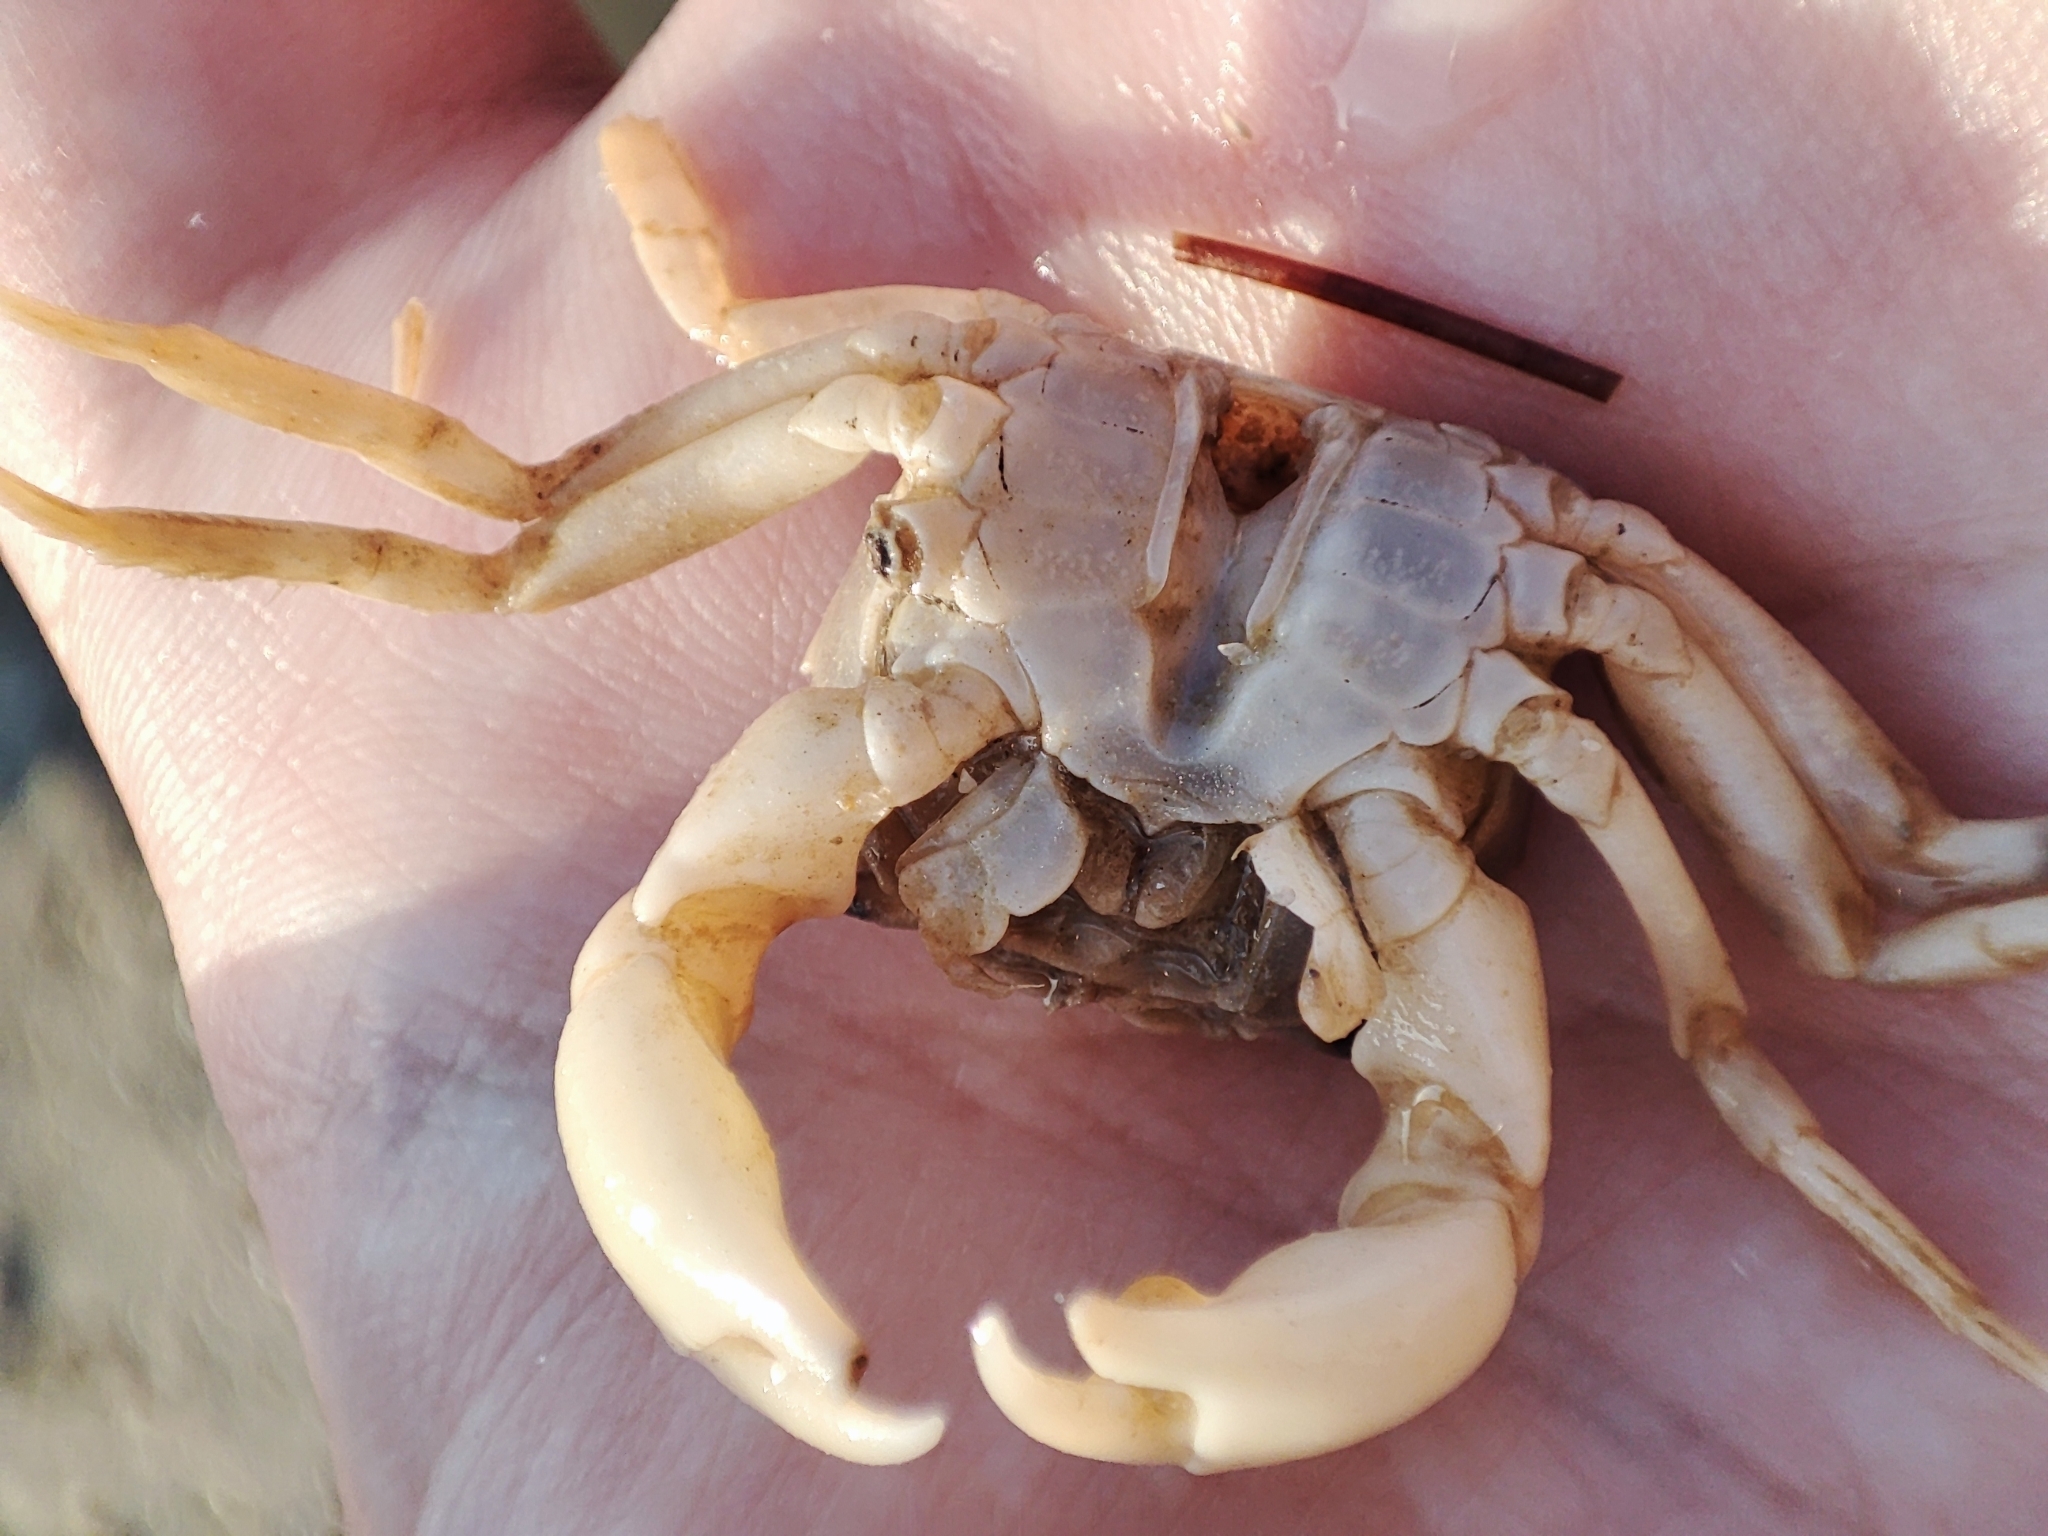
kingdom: Animalia
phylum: Arthropoda
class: Malacostraca
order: Decapoda
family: Varunidae
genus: Brachynotus
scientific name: Brachynotus sexdentatus
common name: Mediterranean crab
